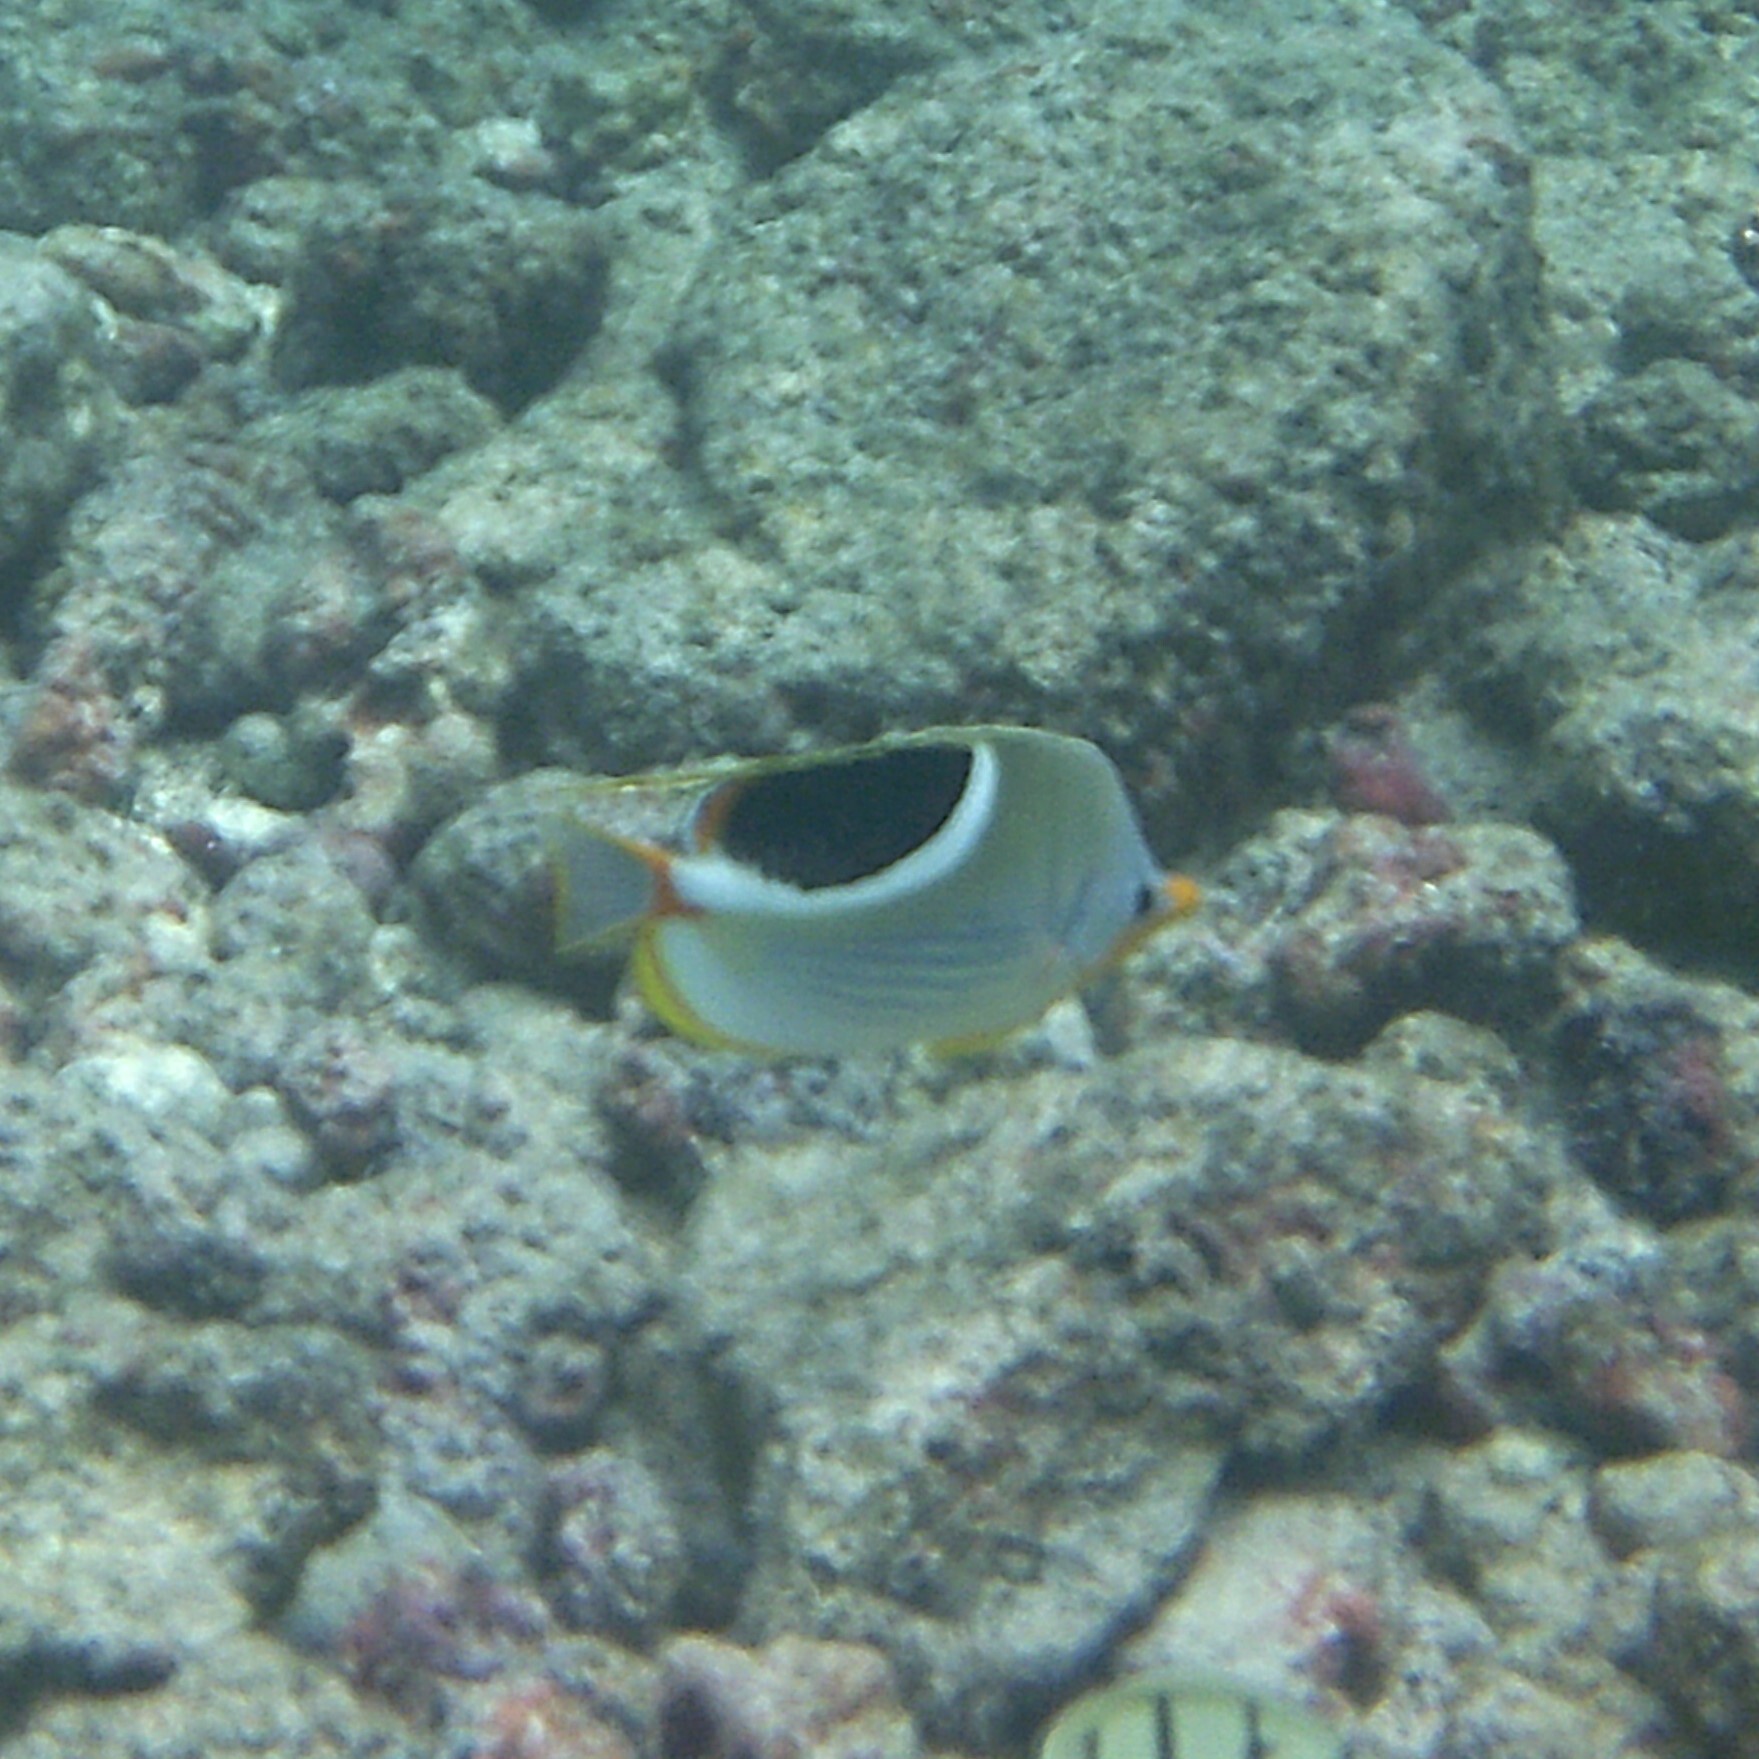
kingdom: Animalia
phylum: Chordata
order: Perciformes
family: Chaetodontidae
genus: Chaetodon
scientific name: Chaetodon ephippium
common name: Saddled butterflyfish
